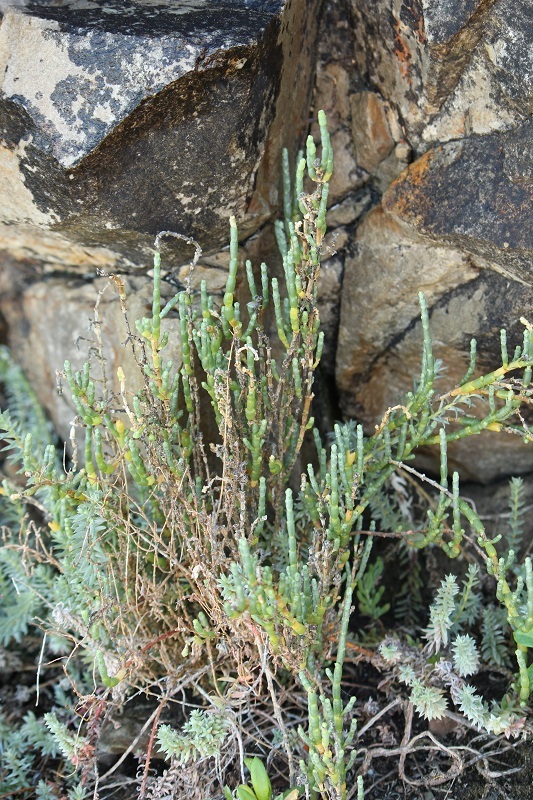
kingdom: Plantae
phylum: Tracheophyta
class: Magnoliopsida
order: Caryophyllales
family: Amaranthaceae
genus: Salicornia
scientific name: Salicornia littorea
